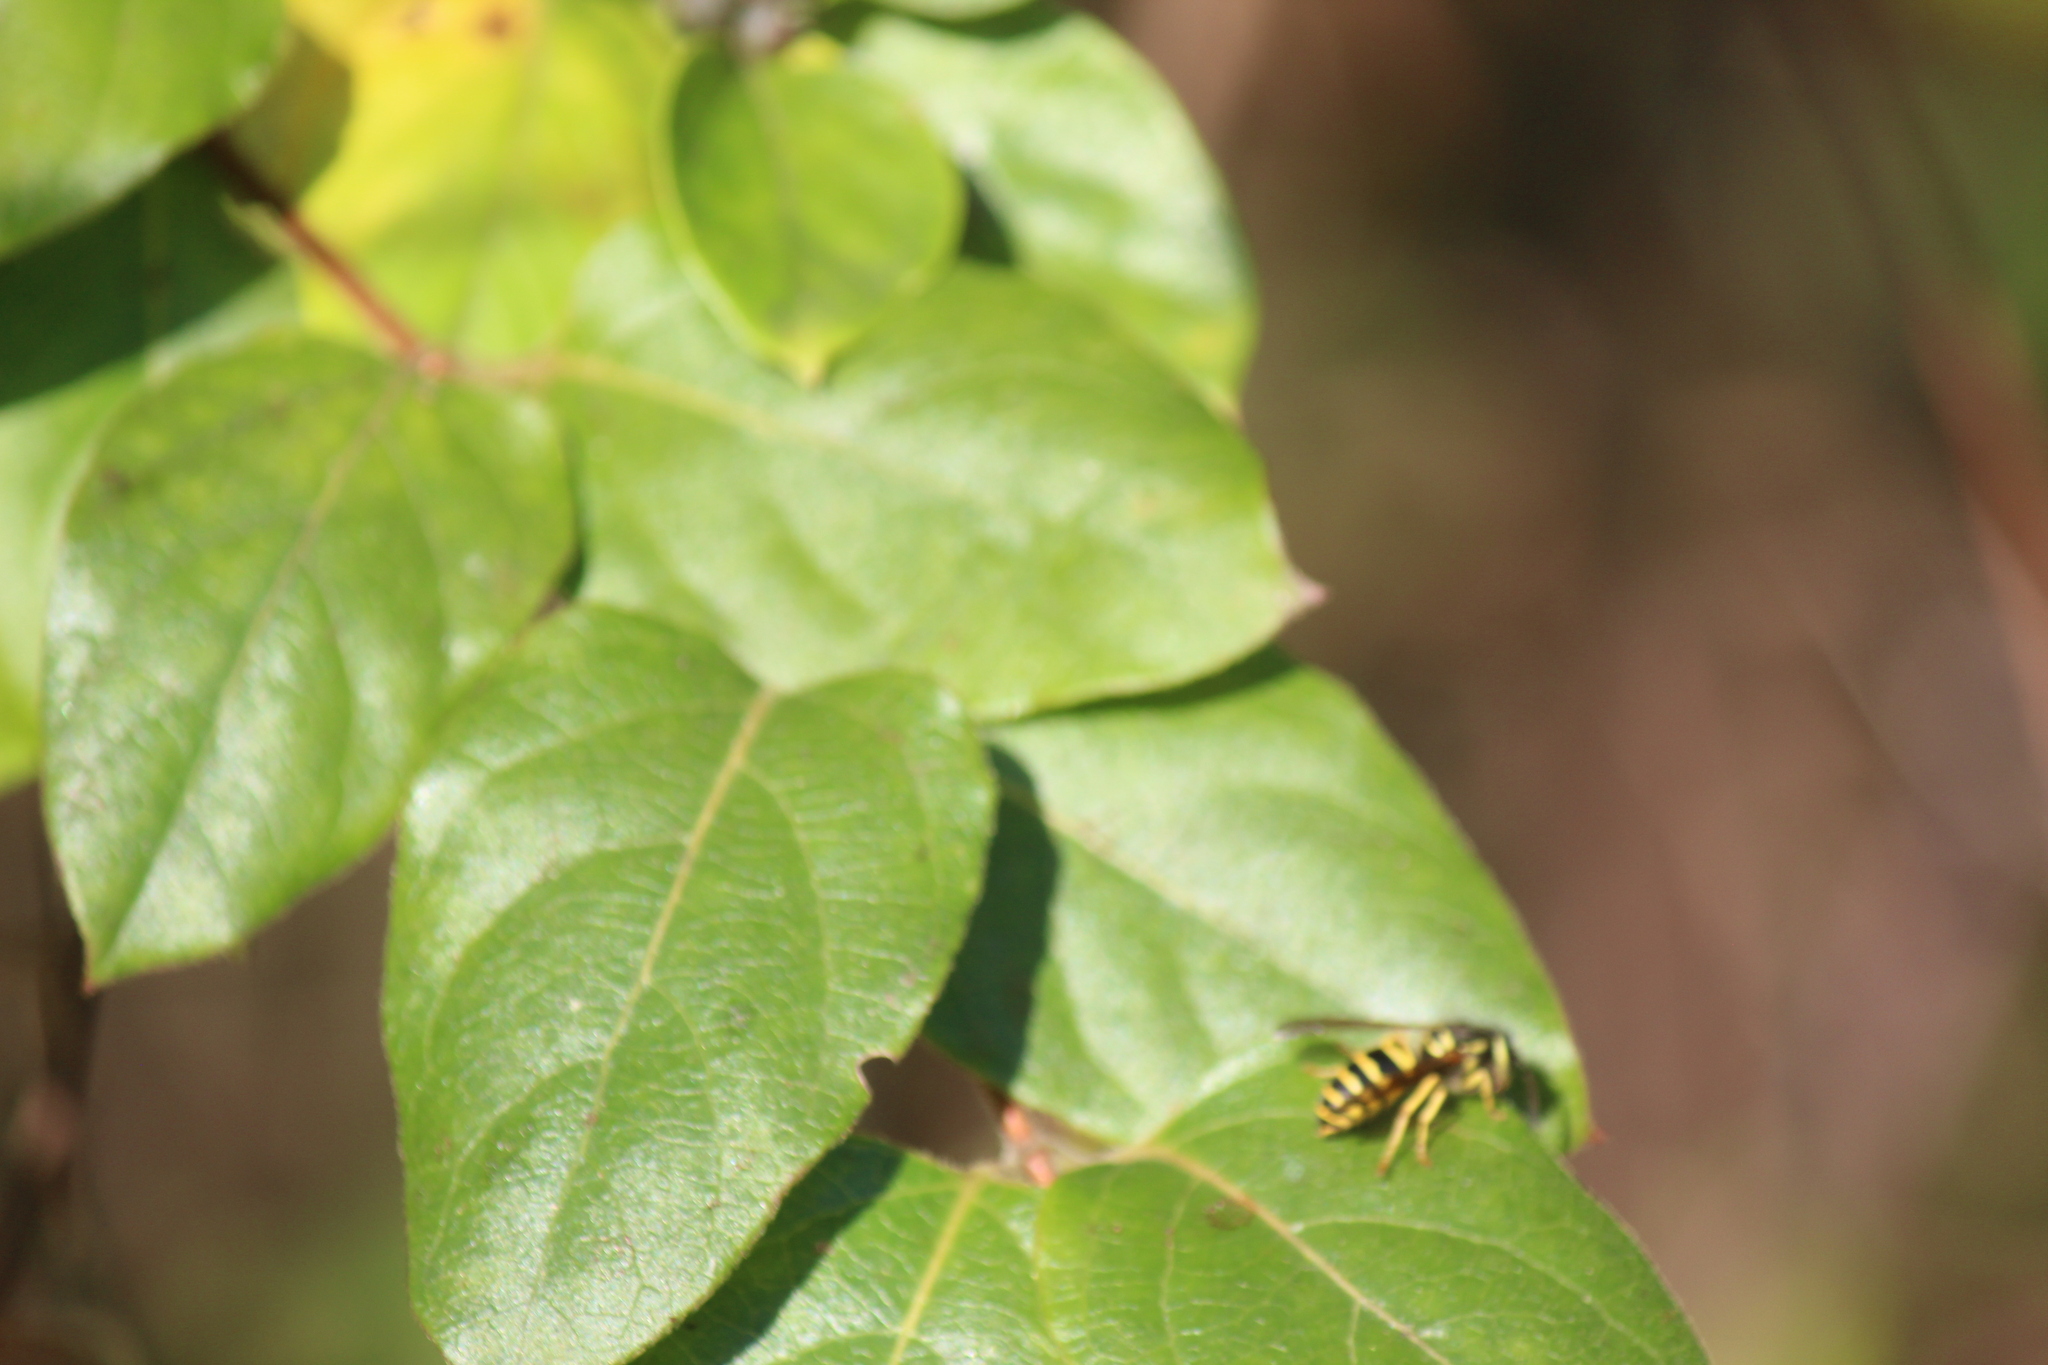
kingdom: Animalia
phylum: Arthropoda
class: Insecta
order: Hymenoptera
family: Vespidae
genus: Vespula
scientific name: Vespula maculifrons
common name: Eastern yellowjacket
